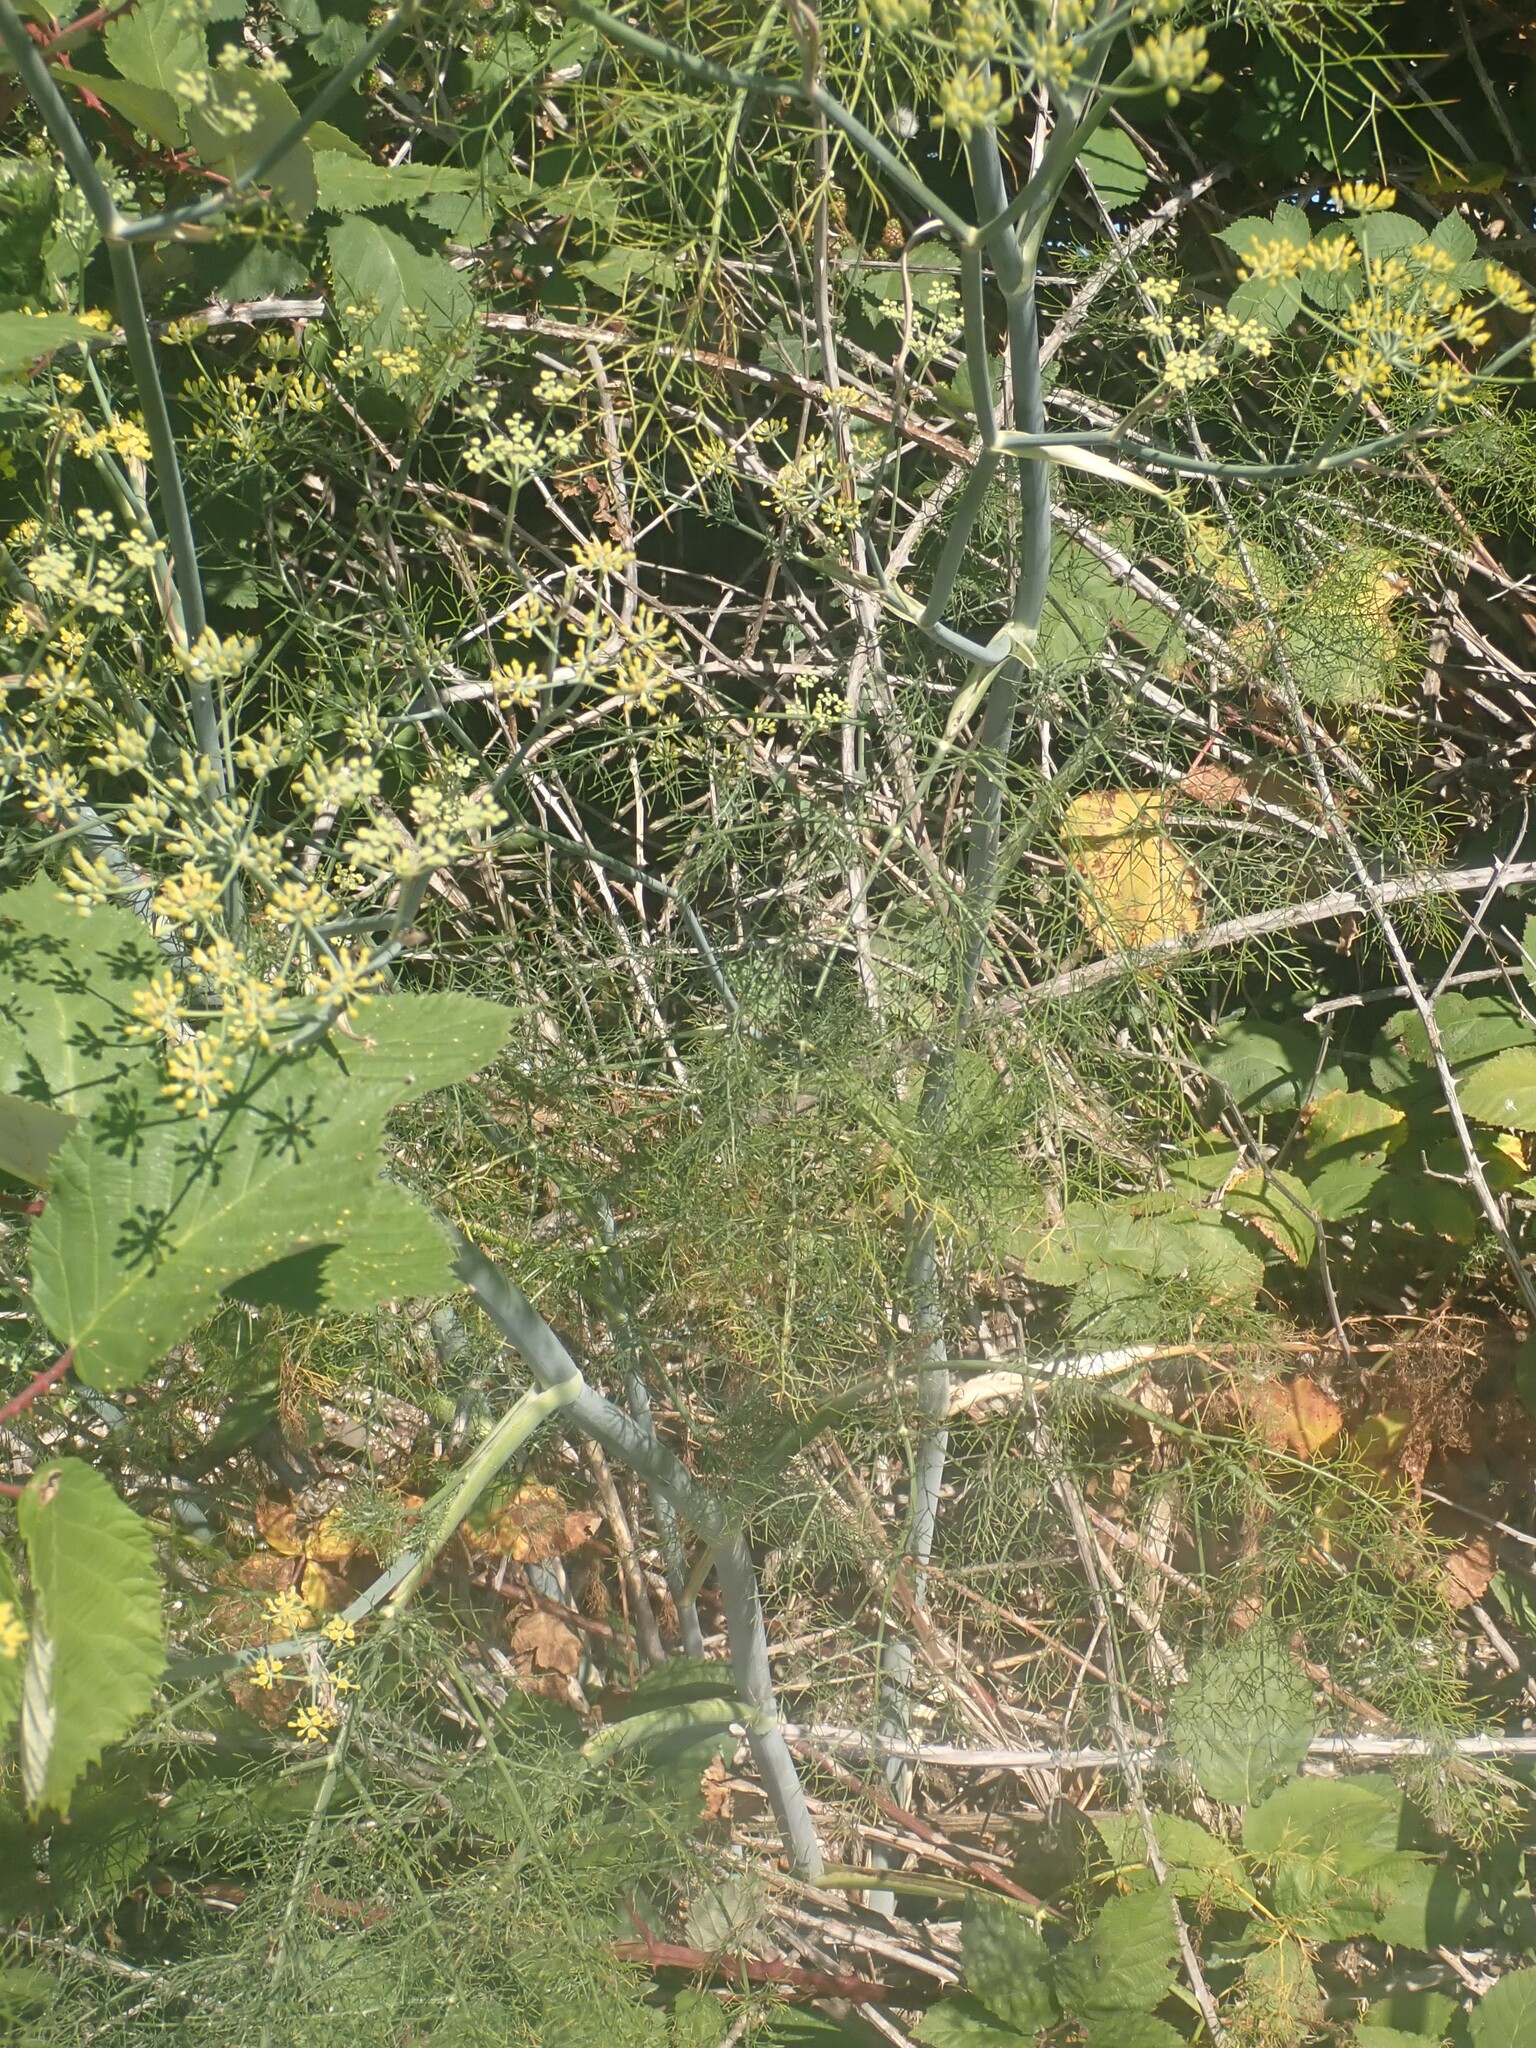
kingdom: Plantae
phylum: Tracheophyta
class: Magnoliopsida
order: Apiales
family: Apiaceae
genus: Foeniculum
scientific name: Foeniculum vulgare
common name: Fennel
